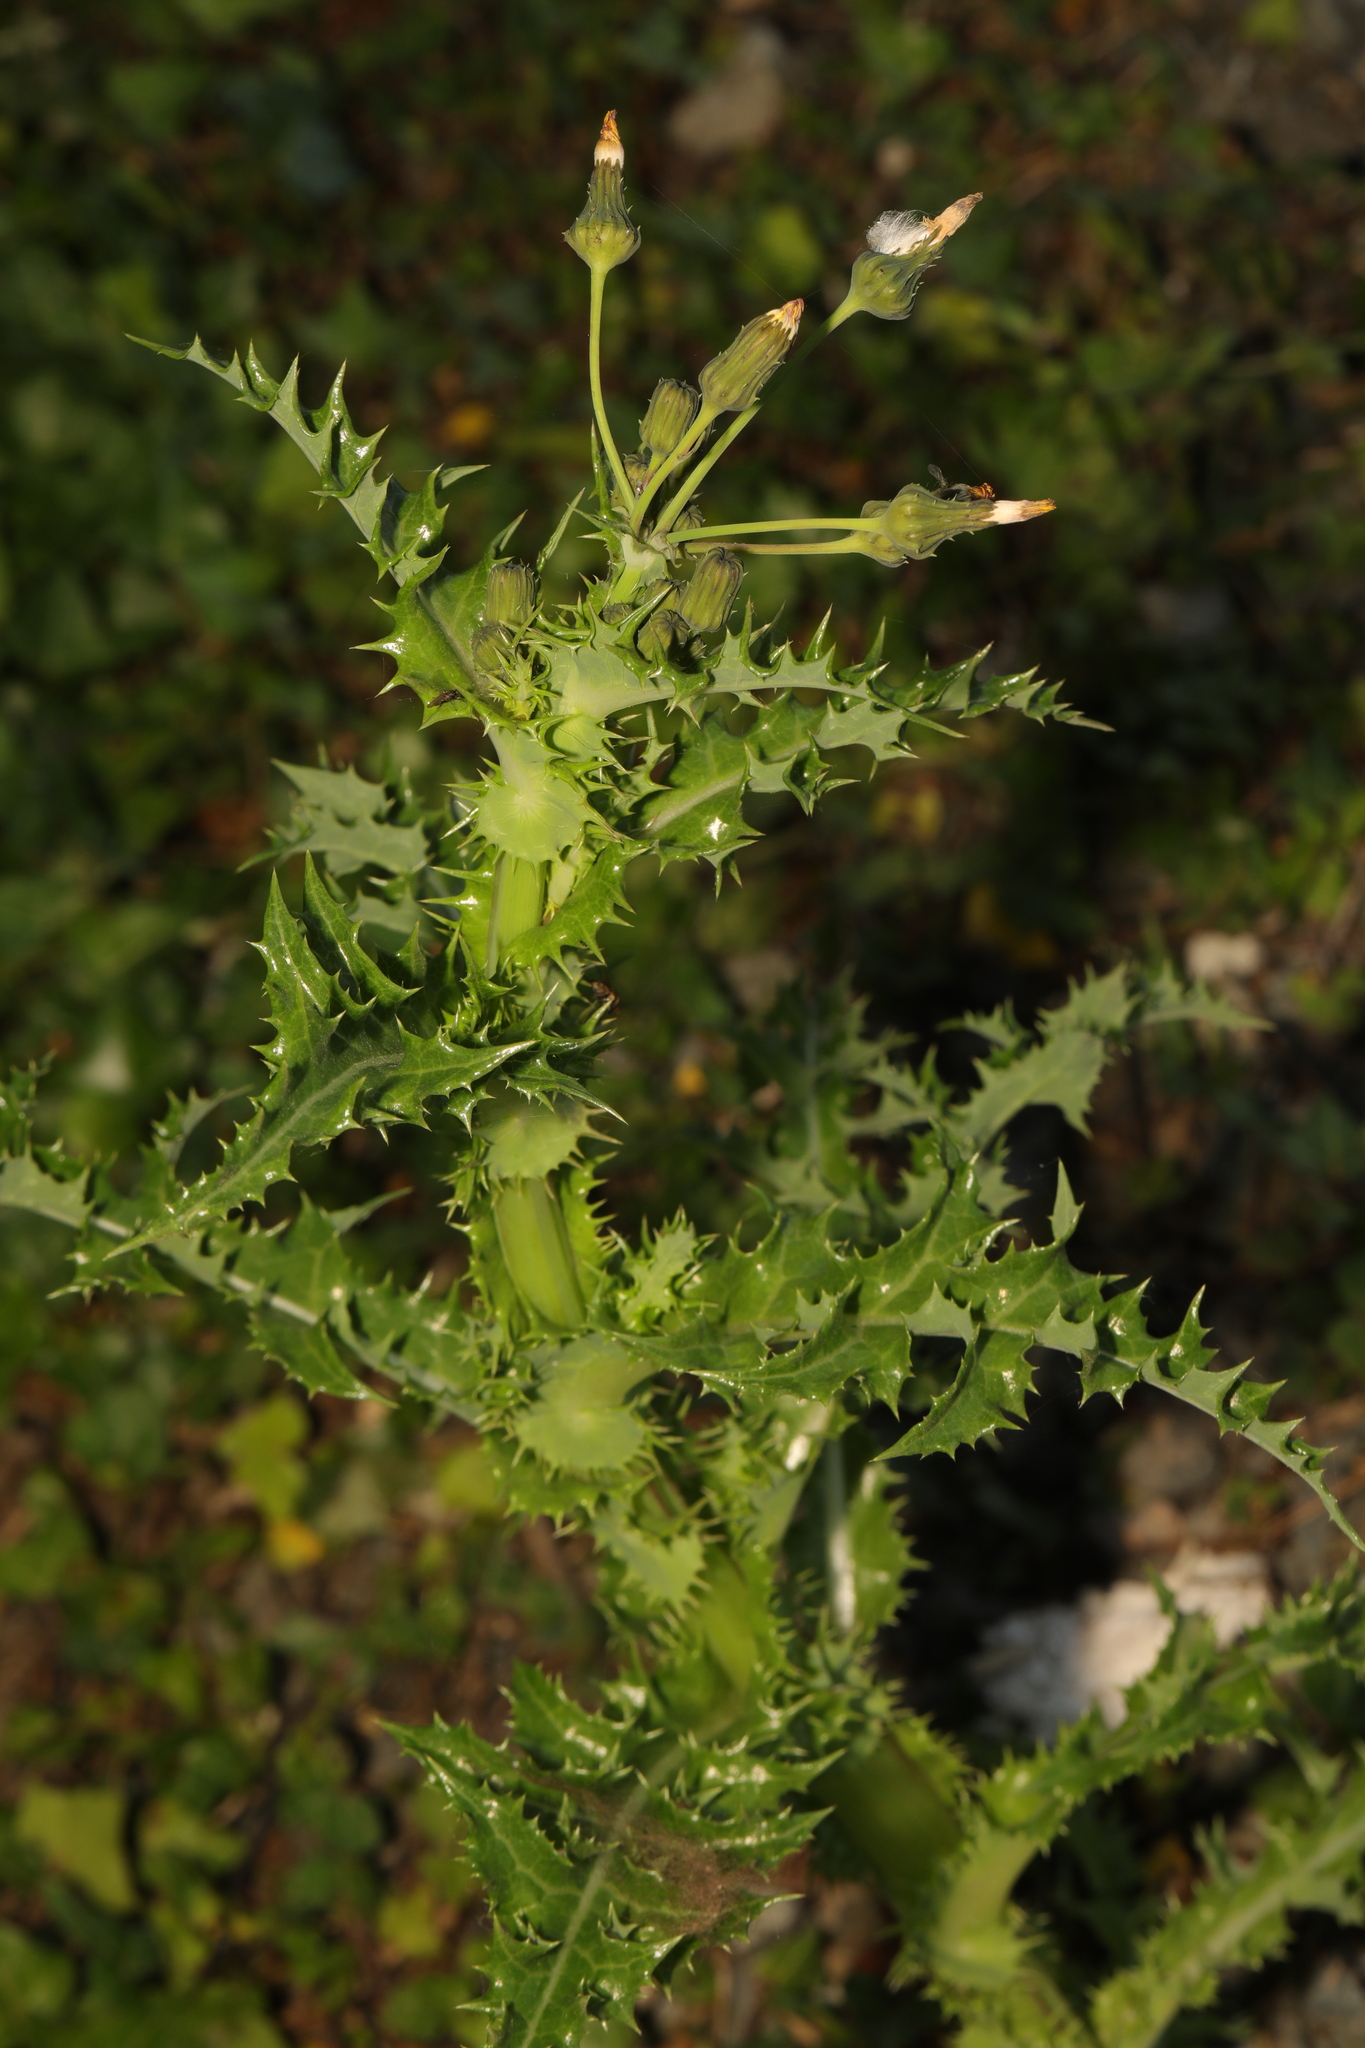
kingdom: Plantae
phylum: Tracheophyta
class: Magnoliopsida
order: Asterales
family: Asteraceae
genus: Sonchus
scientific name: Sonchus asper
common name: Prickly sow-thistle
